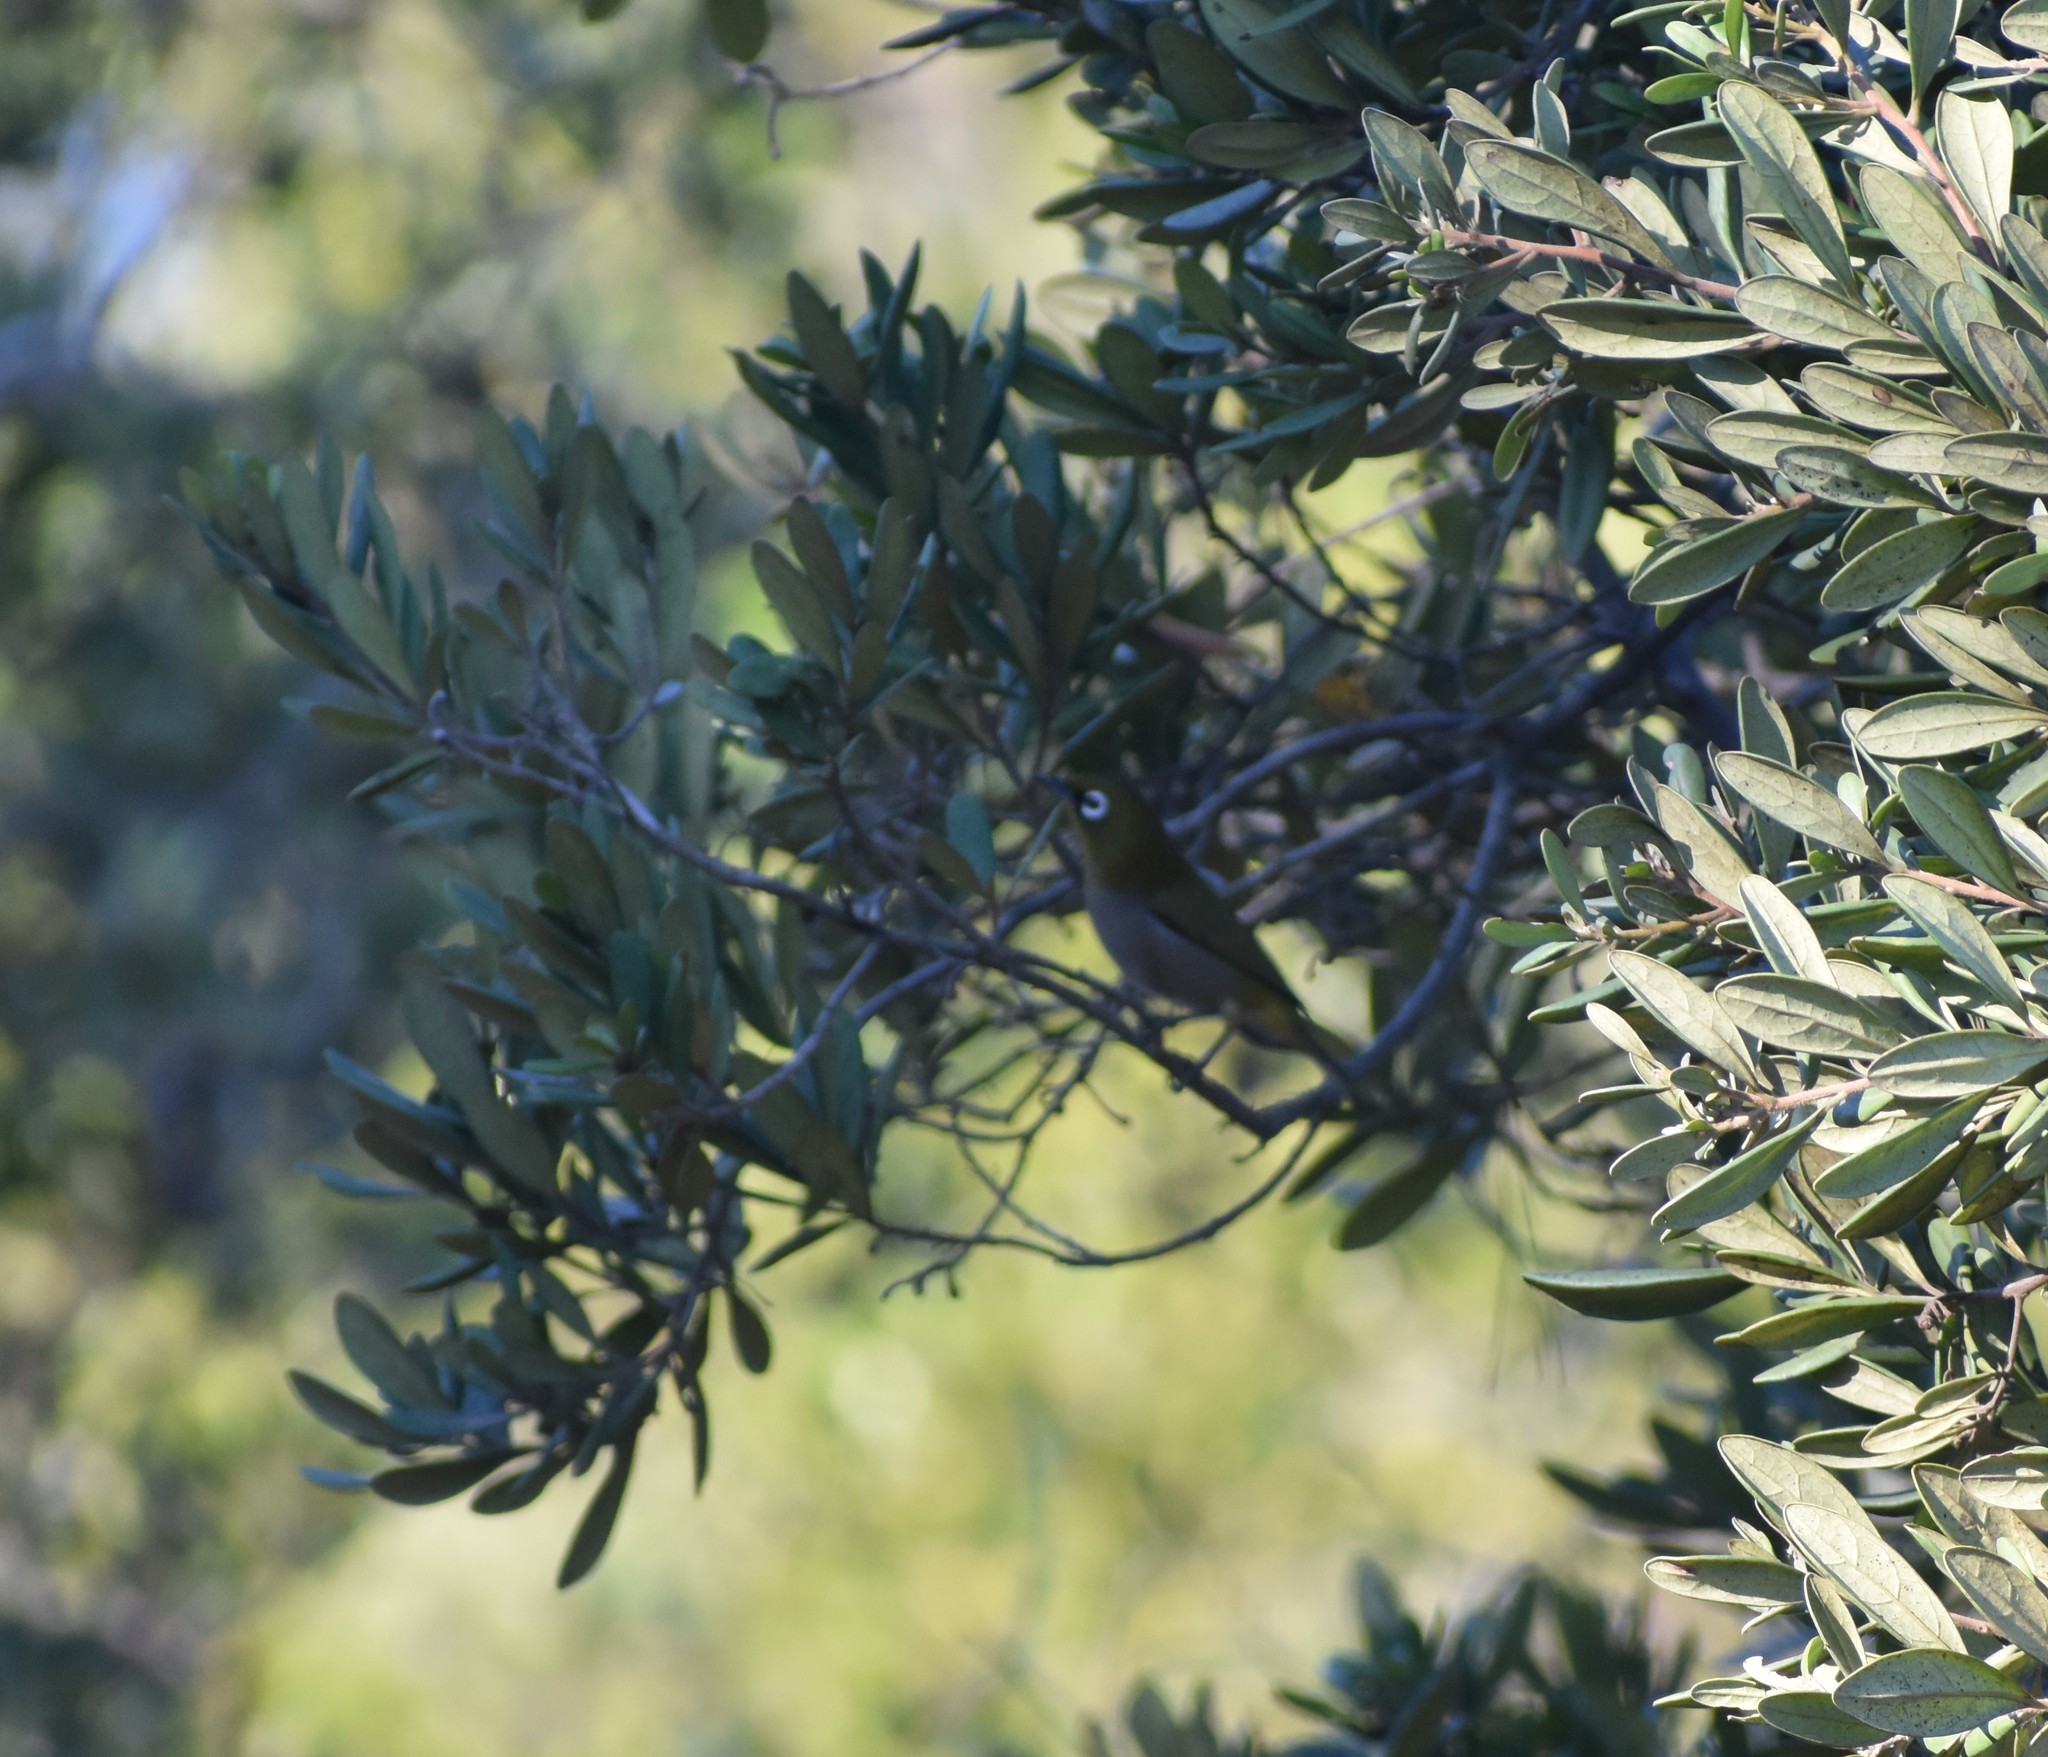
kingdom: Animalia
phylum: Chordata
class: Aves
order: Passeriformes
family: Zosteropidae
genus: Zosterops
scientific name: Zosterops virens
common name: Cape white-eye
